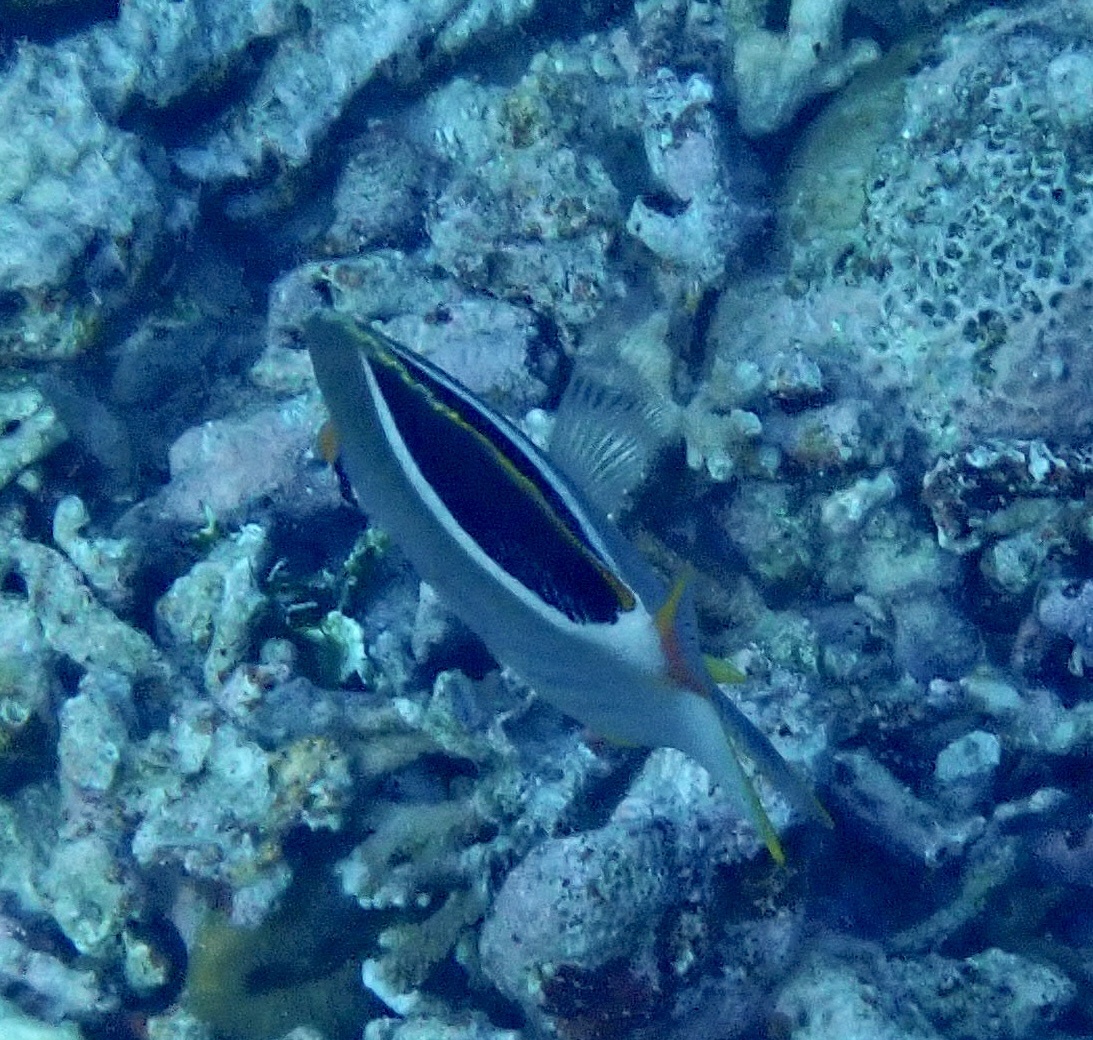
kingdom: Animalia
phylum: Chordata
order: Perciformes
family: Chaetodontidae
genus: Chaetodon
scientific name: Chaetodon ephippium
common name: Saddled butterflyfish
